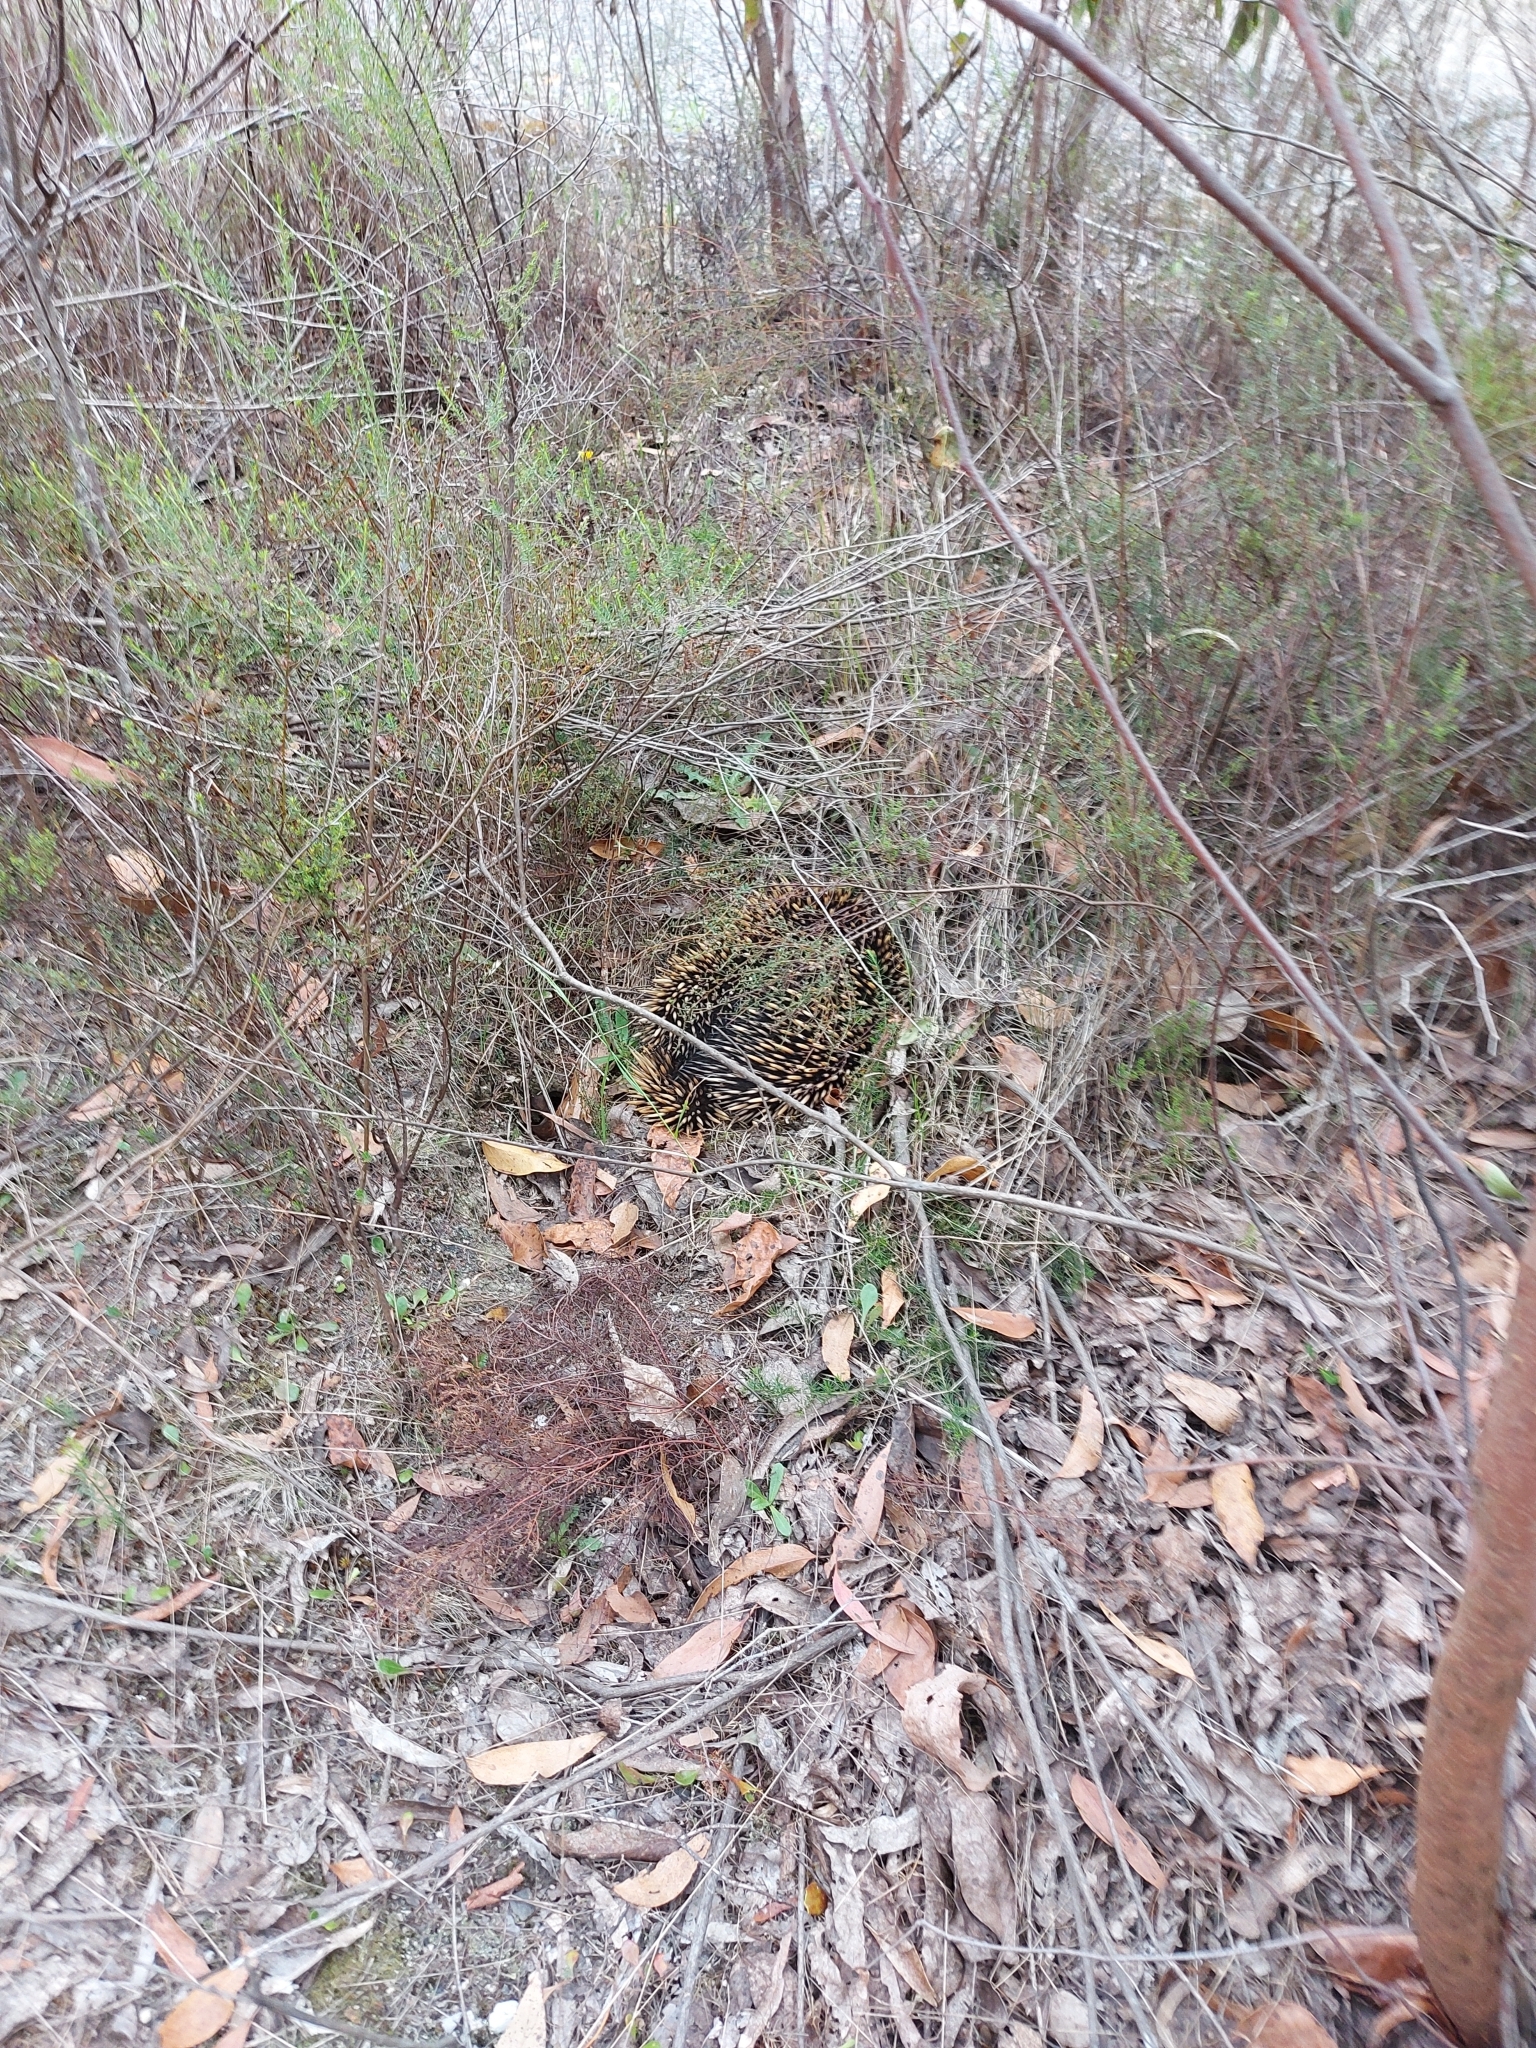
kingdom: Animalia
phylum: Chordata
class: Mammalia
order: Monotremata
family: Tachyglossidae
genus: Tachyglossus
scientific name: Tachyglossus aculeatus
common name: Short-beaked echidna
